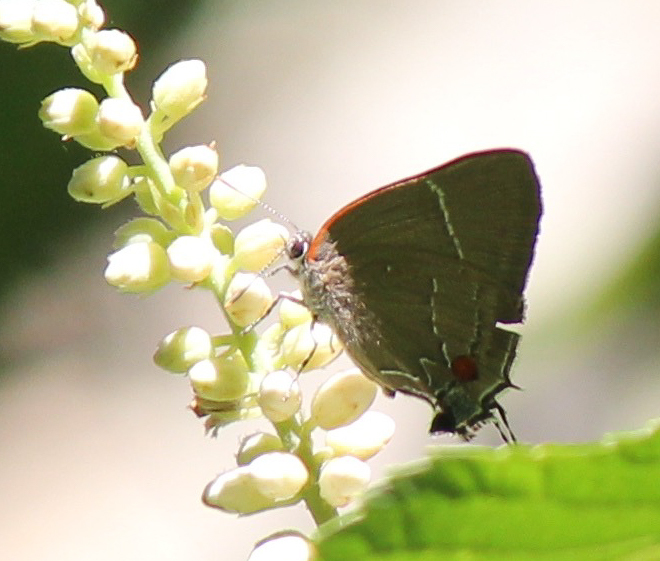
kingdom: Animalia
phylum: Arthropoda
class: Insecta
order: Lepidoptera
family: Lycaenidae
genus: Parrhasius
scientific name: Parrhasius m-album
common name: White m hairstreak
